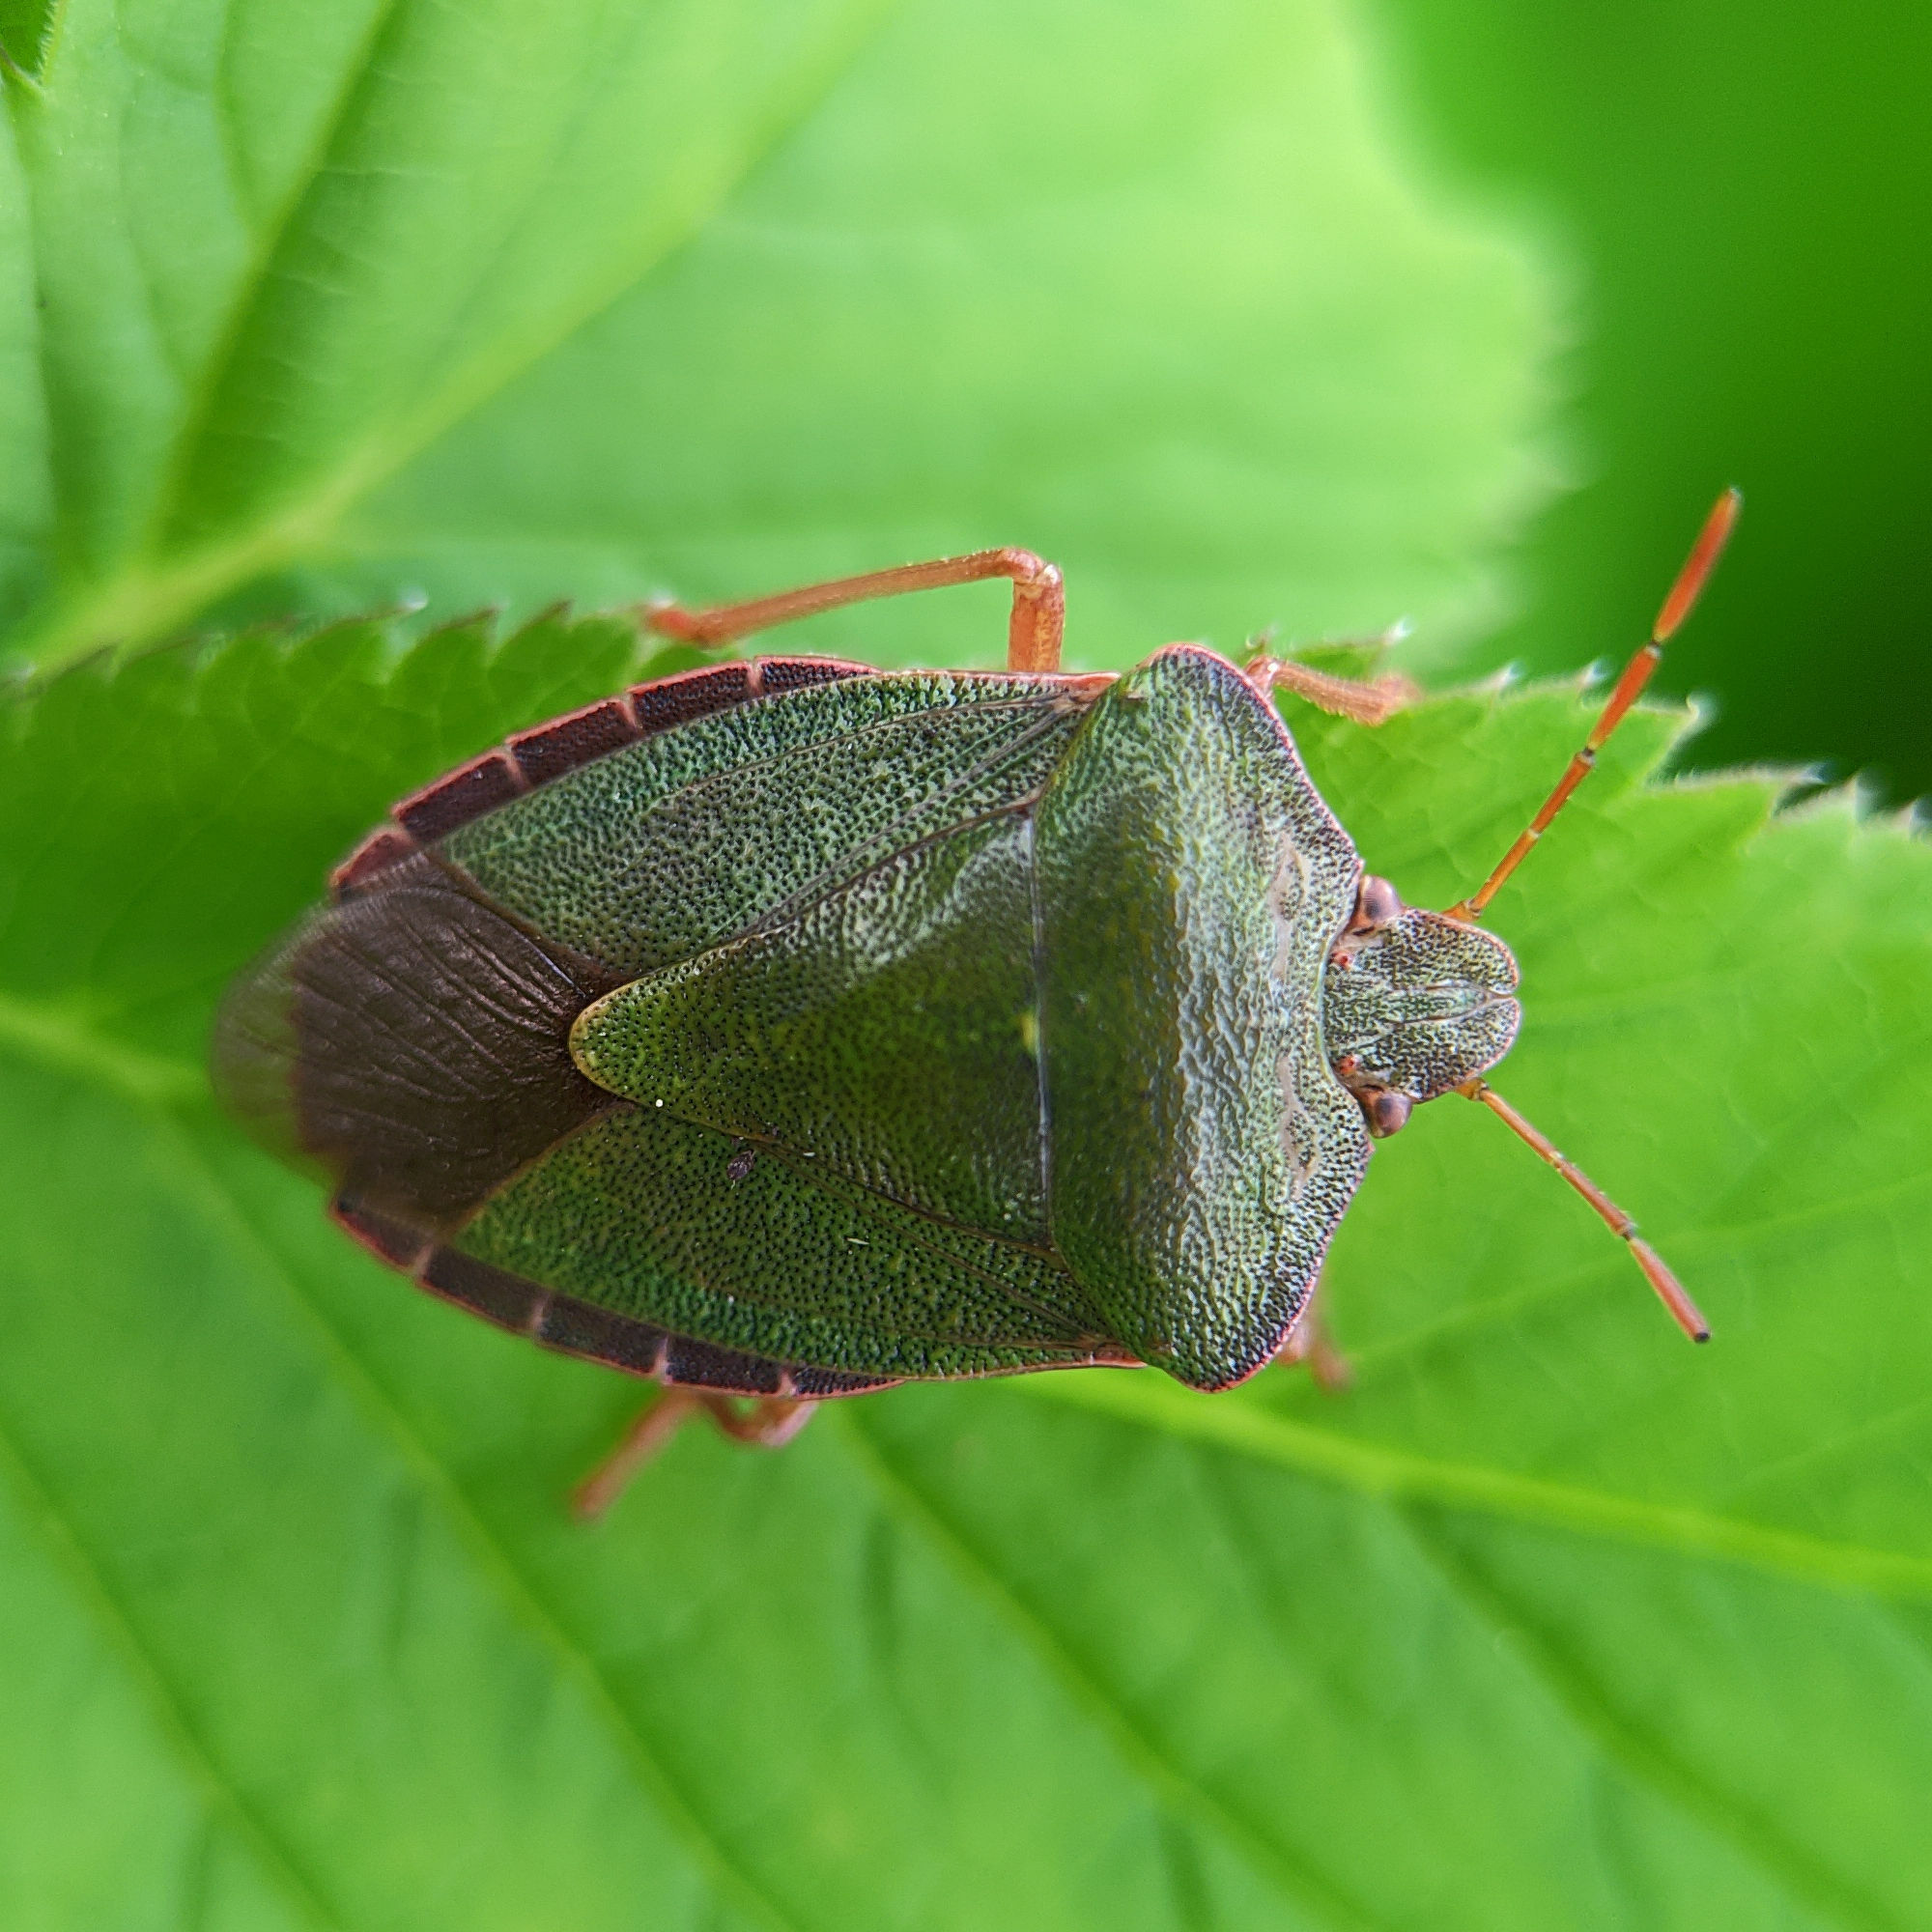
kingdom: Animalia
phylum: Arthropoda
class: Insecta
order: Hemiptera
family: Pentatomidae
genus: Palomena
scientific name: Palomena prasina
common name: Green shieldbug
